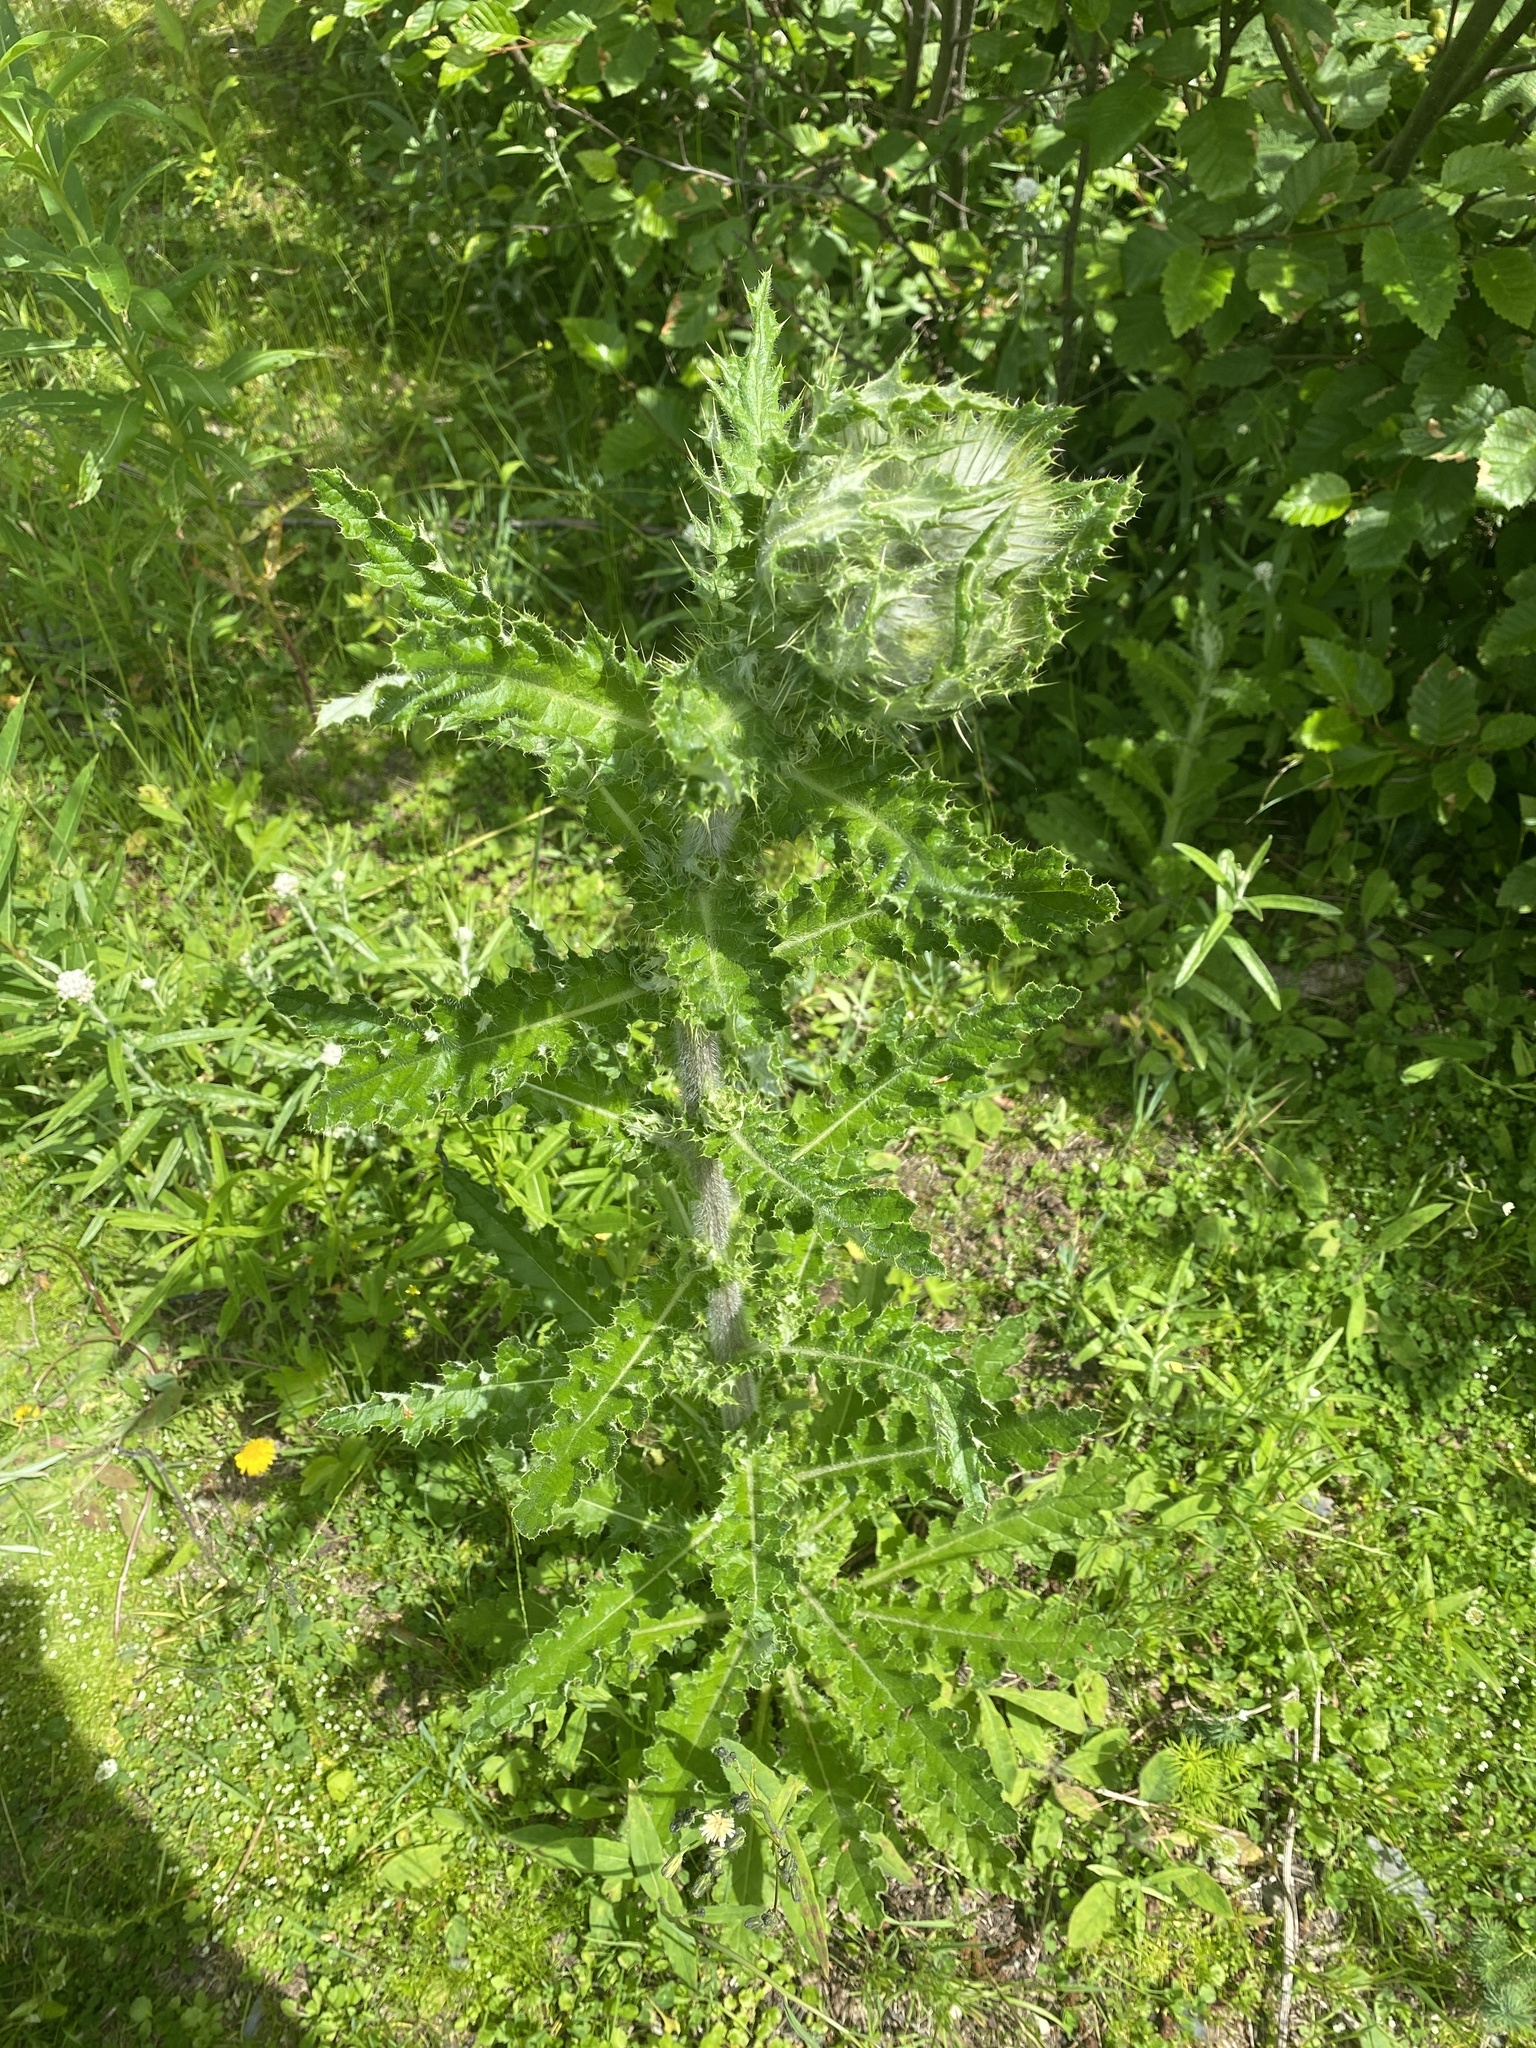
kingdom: Plantae
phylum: Tracheophyta
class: Magnoliopsida
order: Asterales
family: Asteraceae
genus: Cirsium
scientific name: Cirsium brevistylum
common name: Indian thistle
